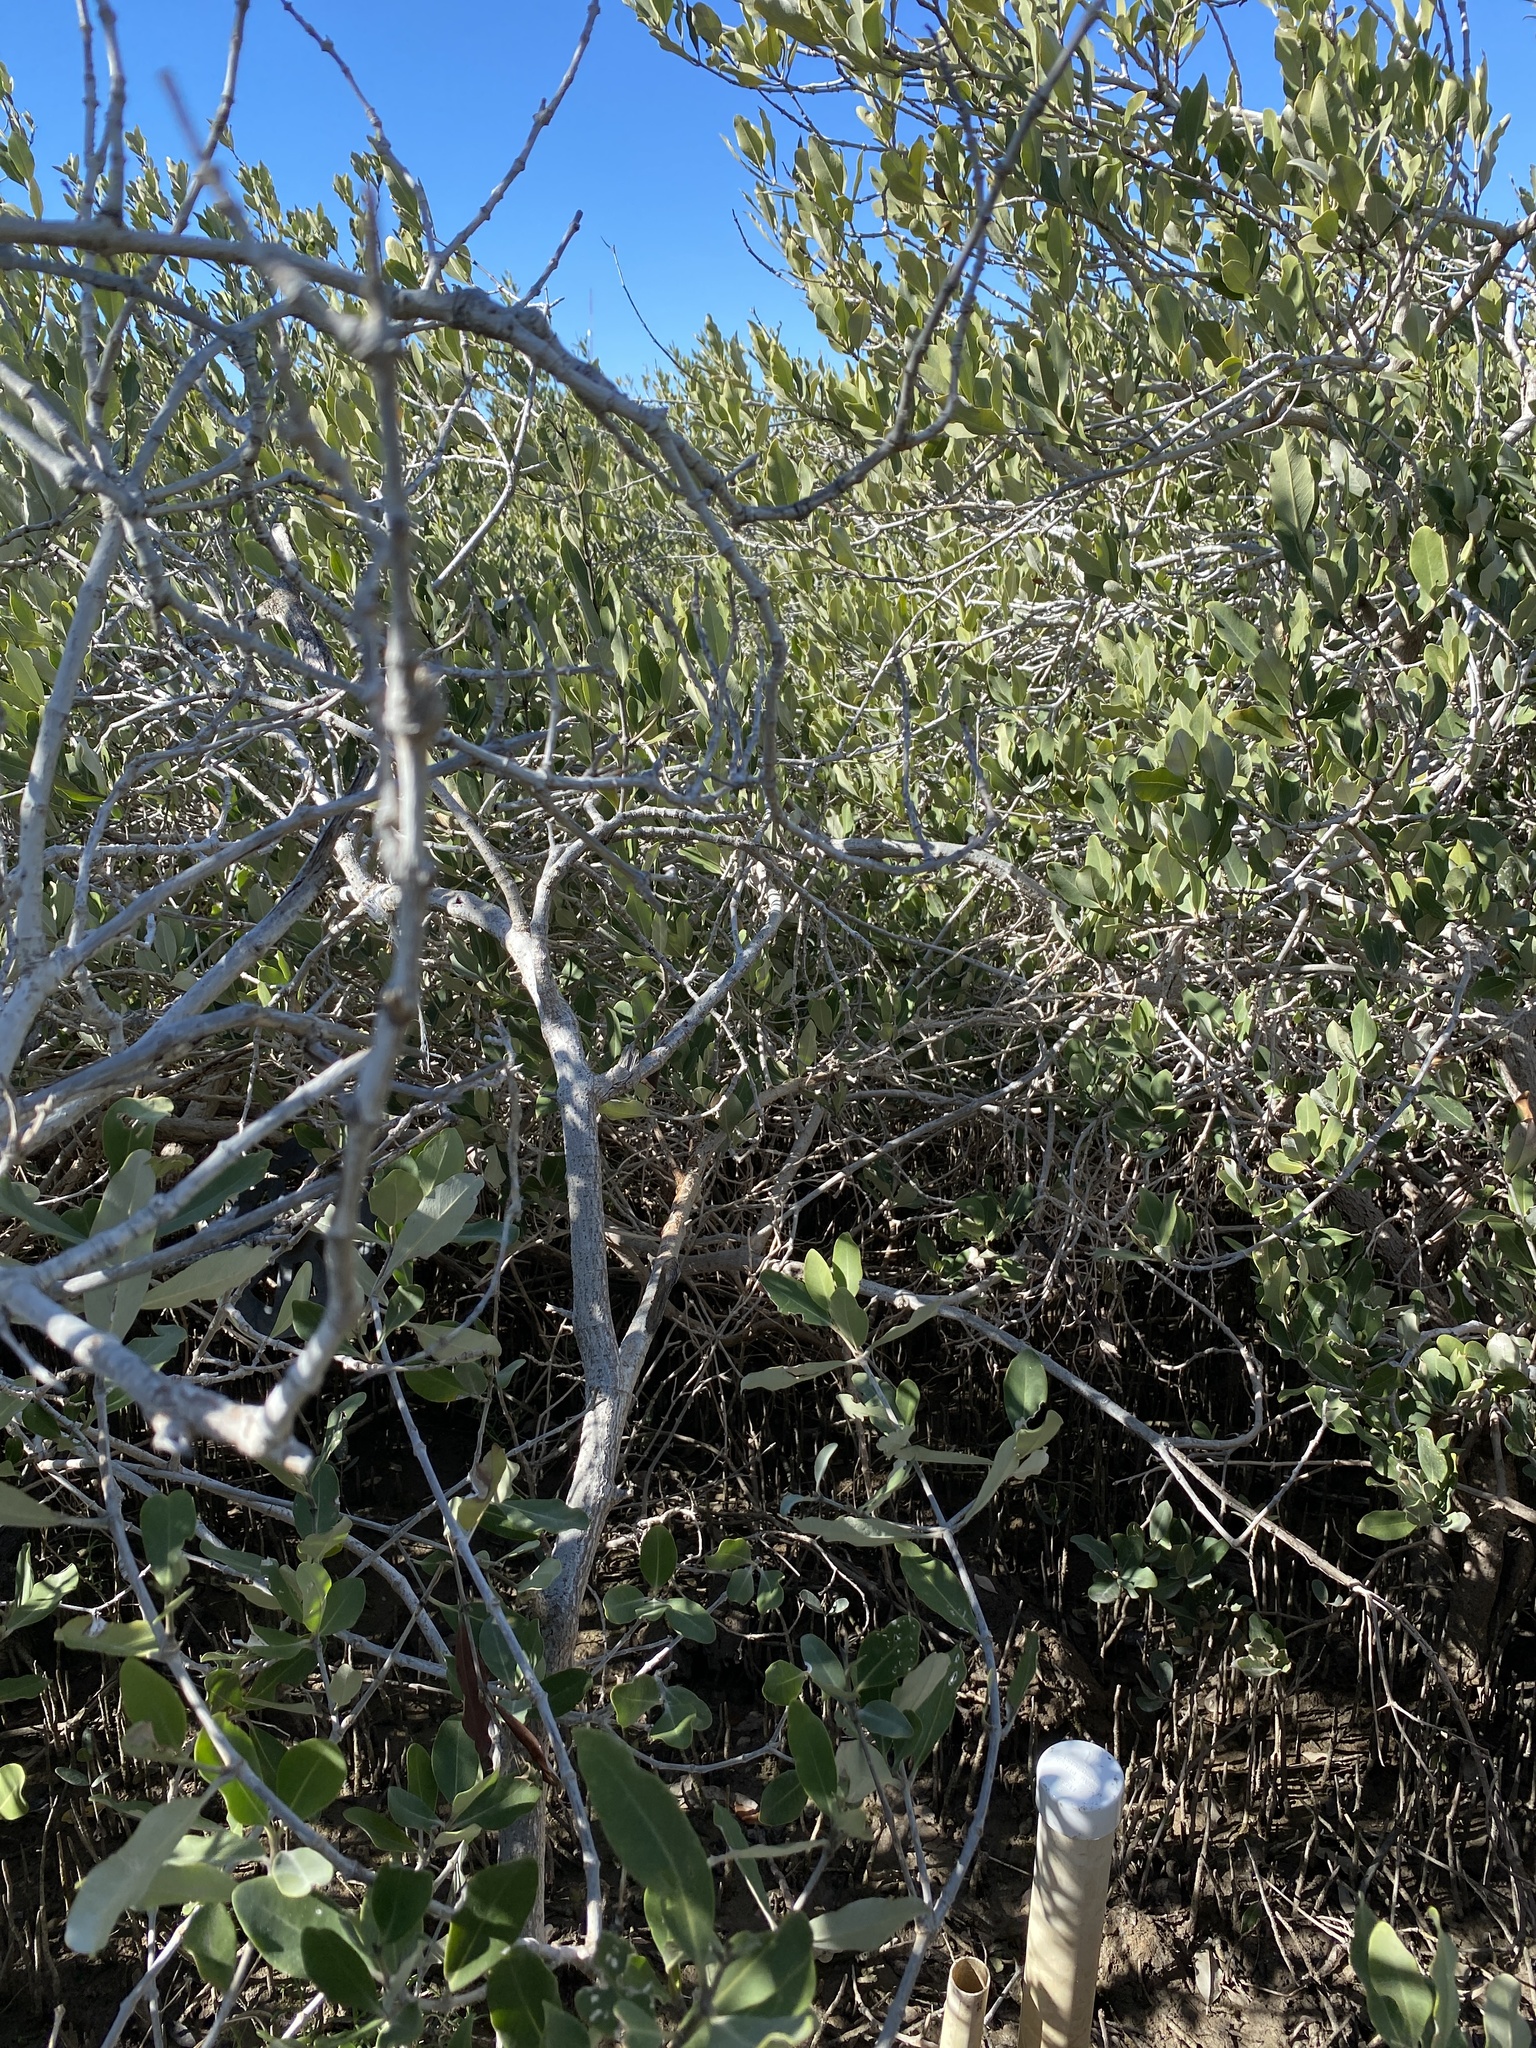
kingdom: Plantae
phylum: Tracheophyta
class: Magnoliopsida
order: Lamiales
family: Acanthaceae
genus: Avicennia
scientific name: Avicennia germinans
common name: Black mangrove
